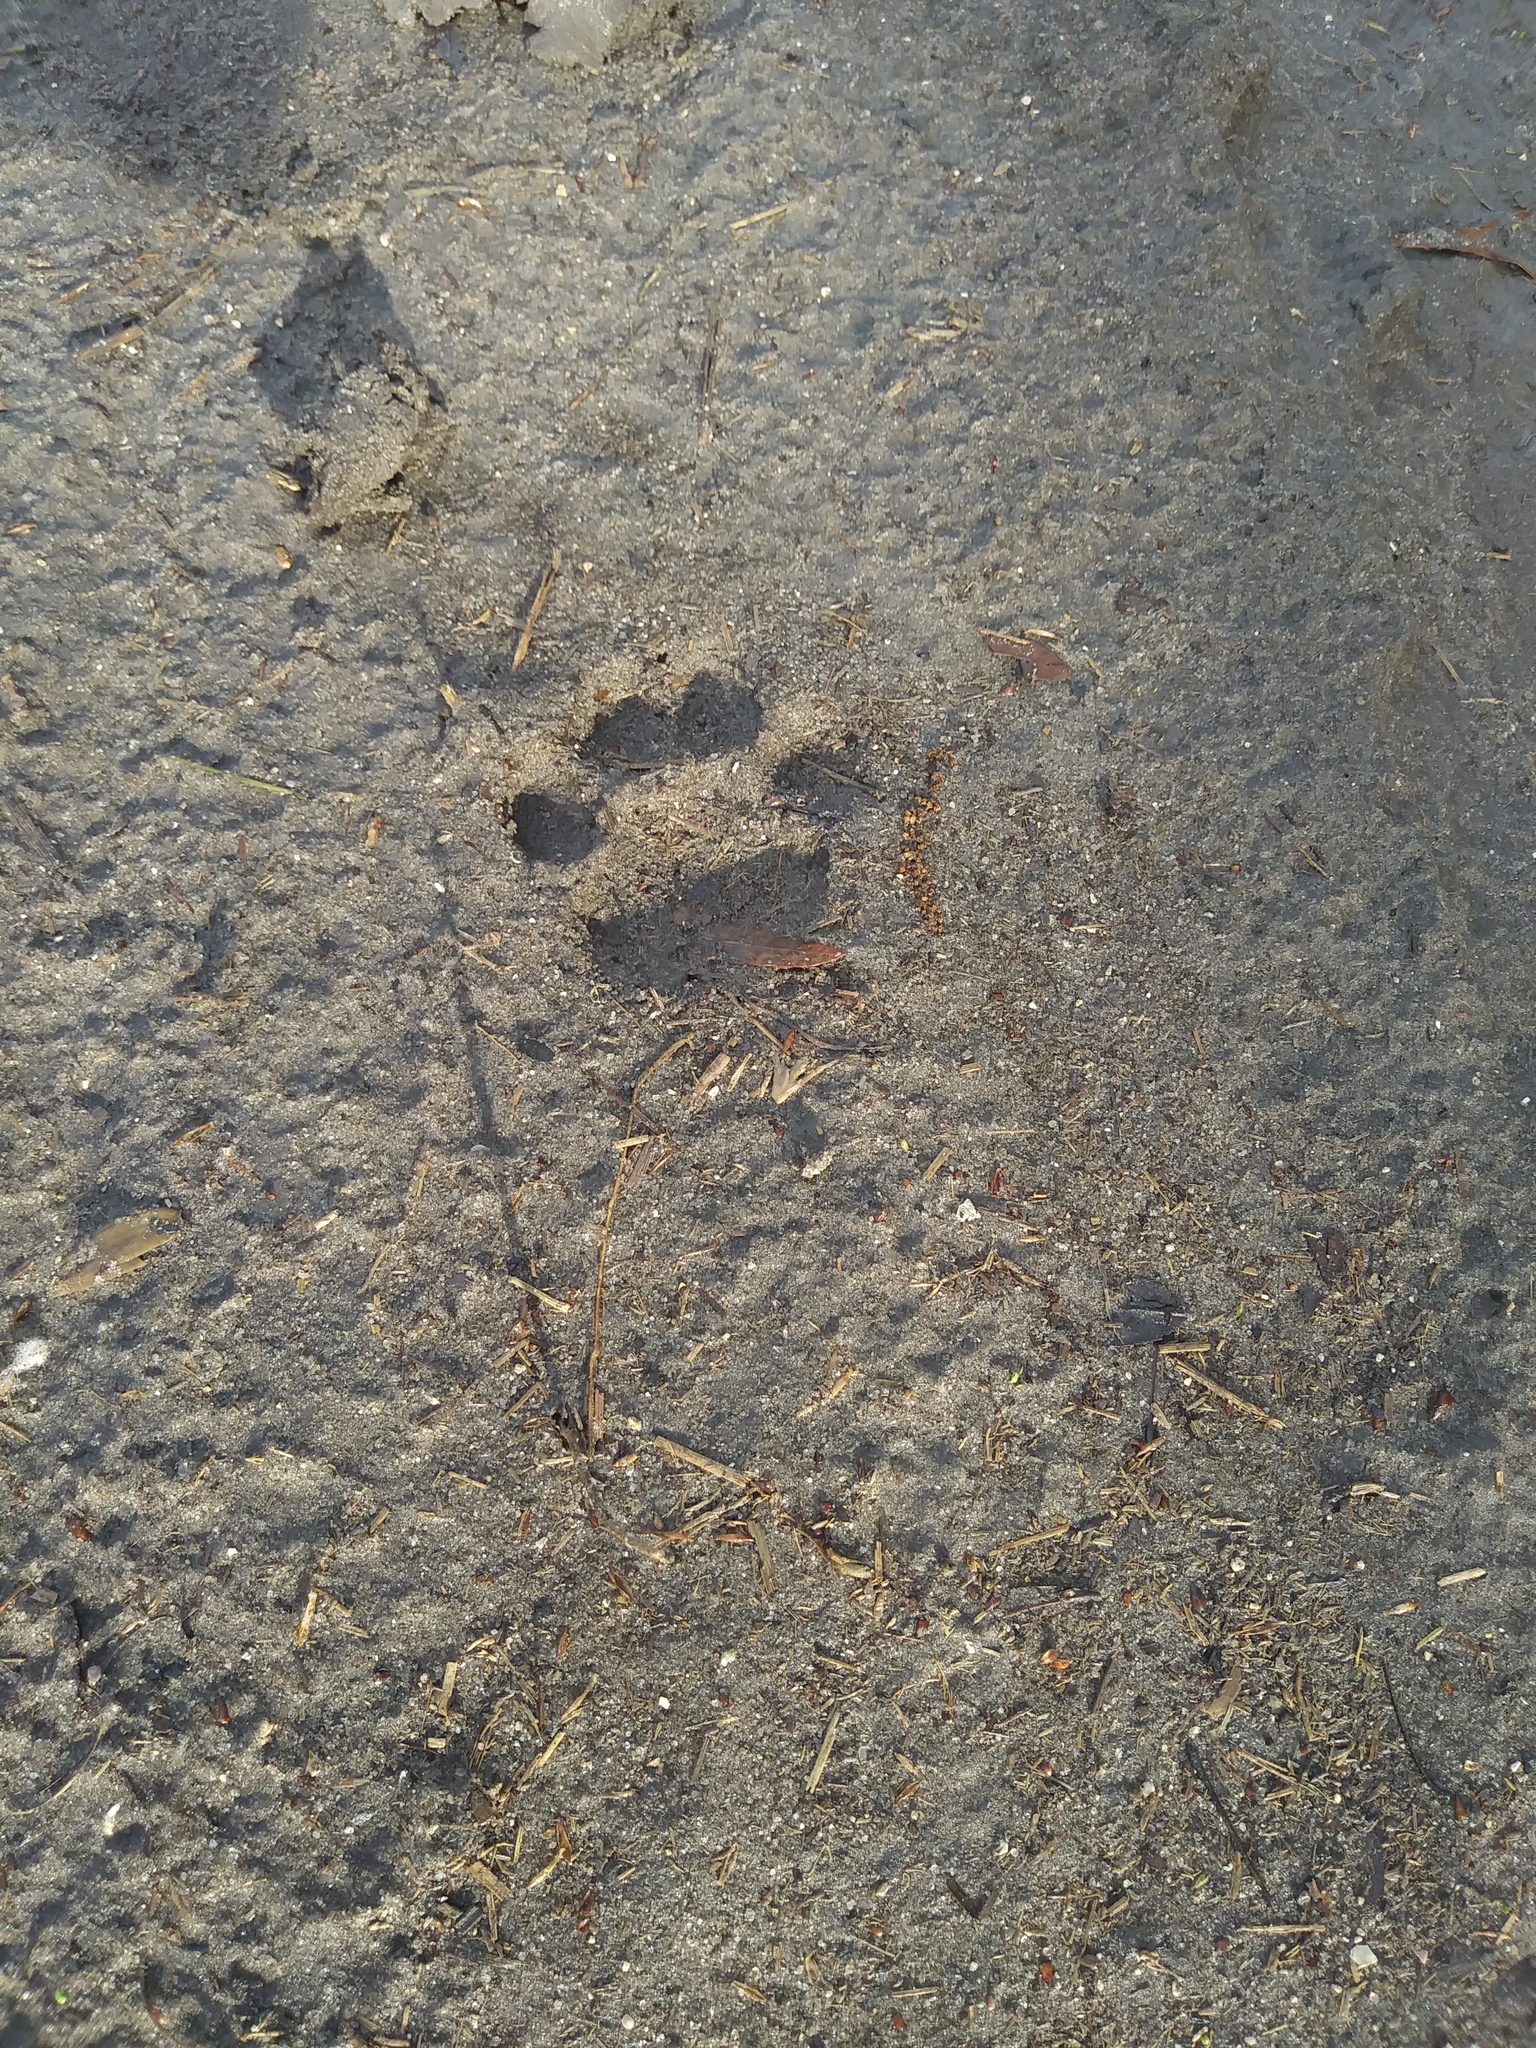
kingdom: Animalia
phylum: Chordata
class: Mammalia
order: Carnivora
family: Felidae
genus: Lynx
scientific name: Lynx rufus
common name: Bobcat
